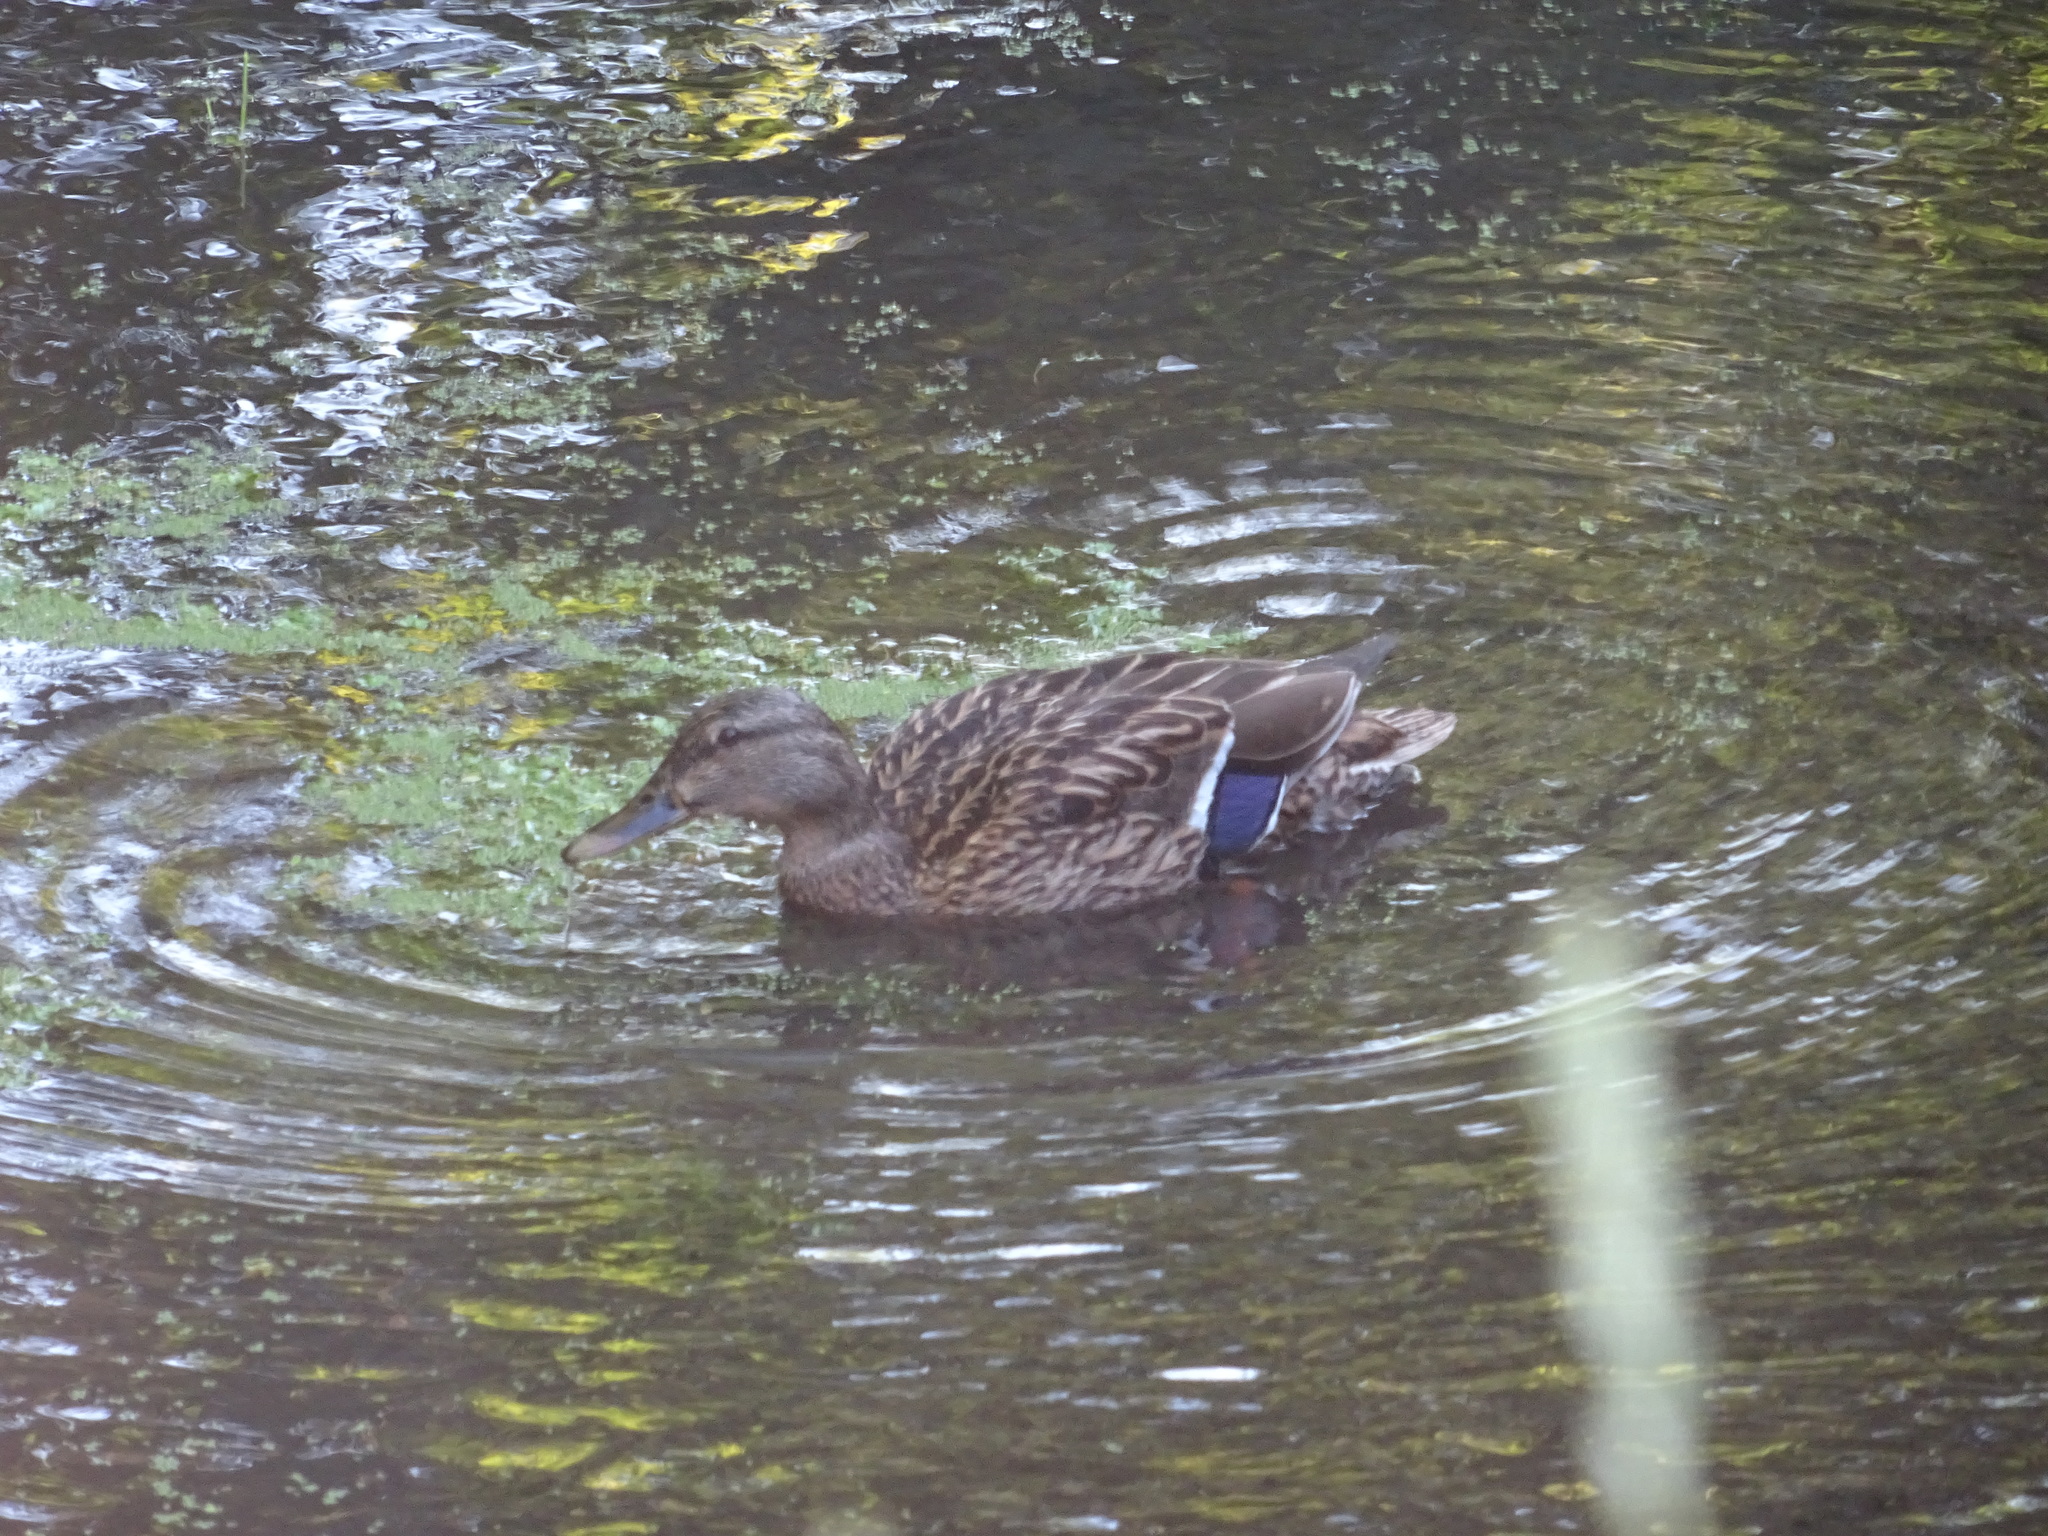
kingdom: Animalia
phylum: Chordata
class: Aves
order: Anseriformes
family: Anatidae
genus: Anas
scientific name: Anas platyrhynchos
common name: Mallard
